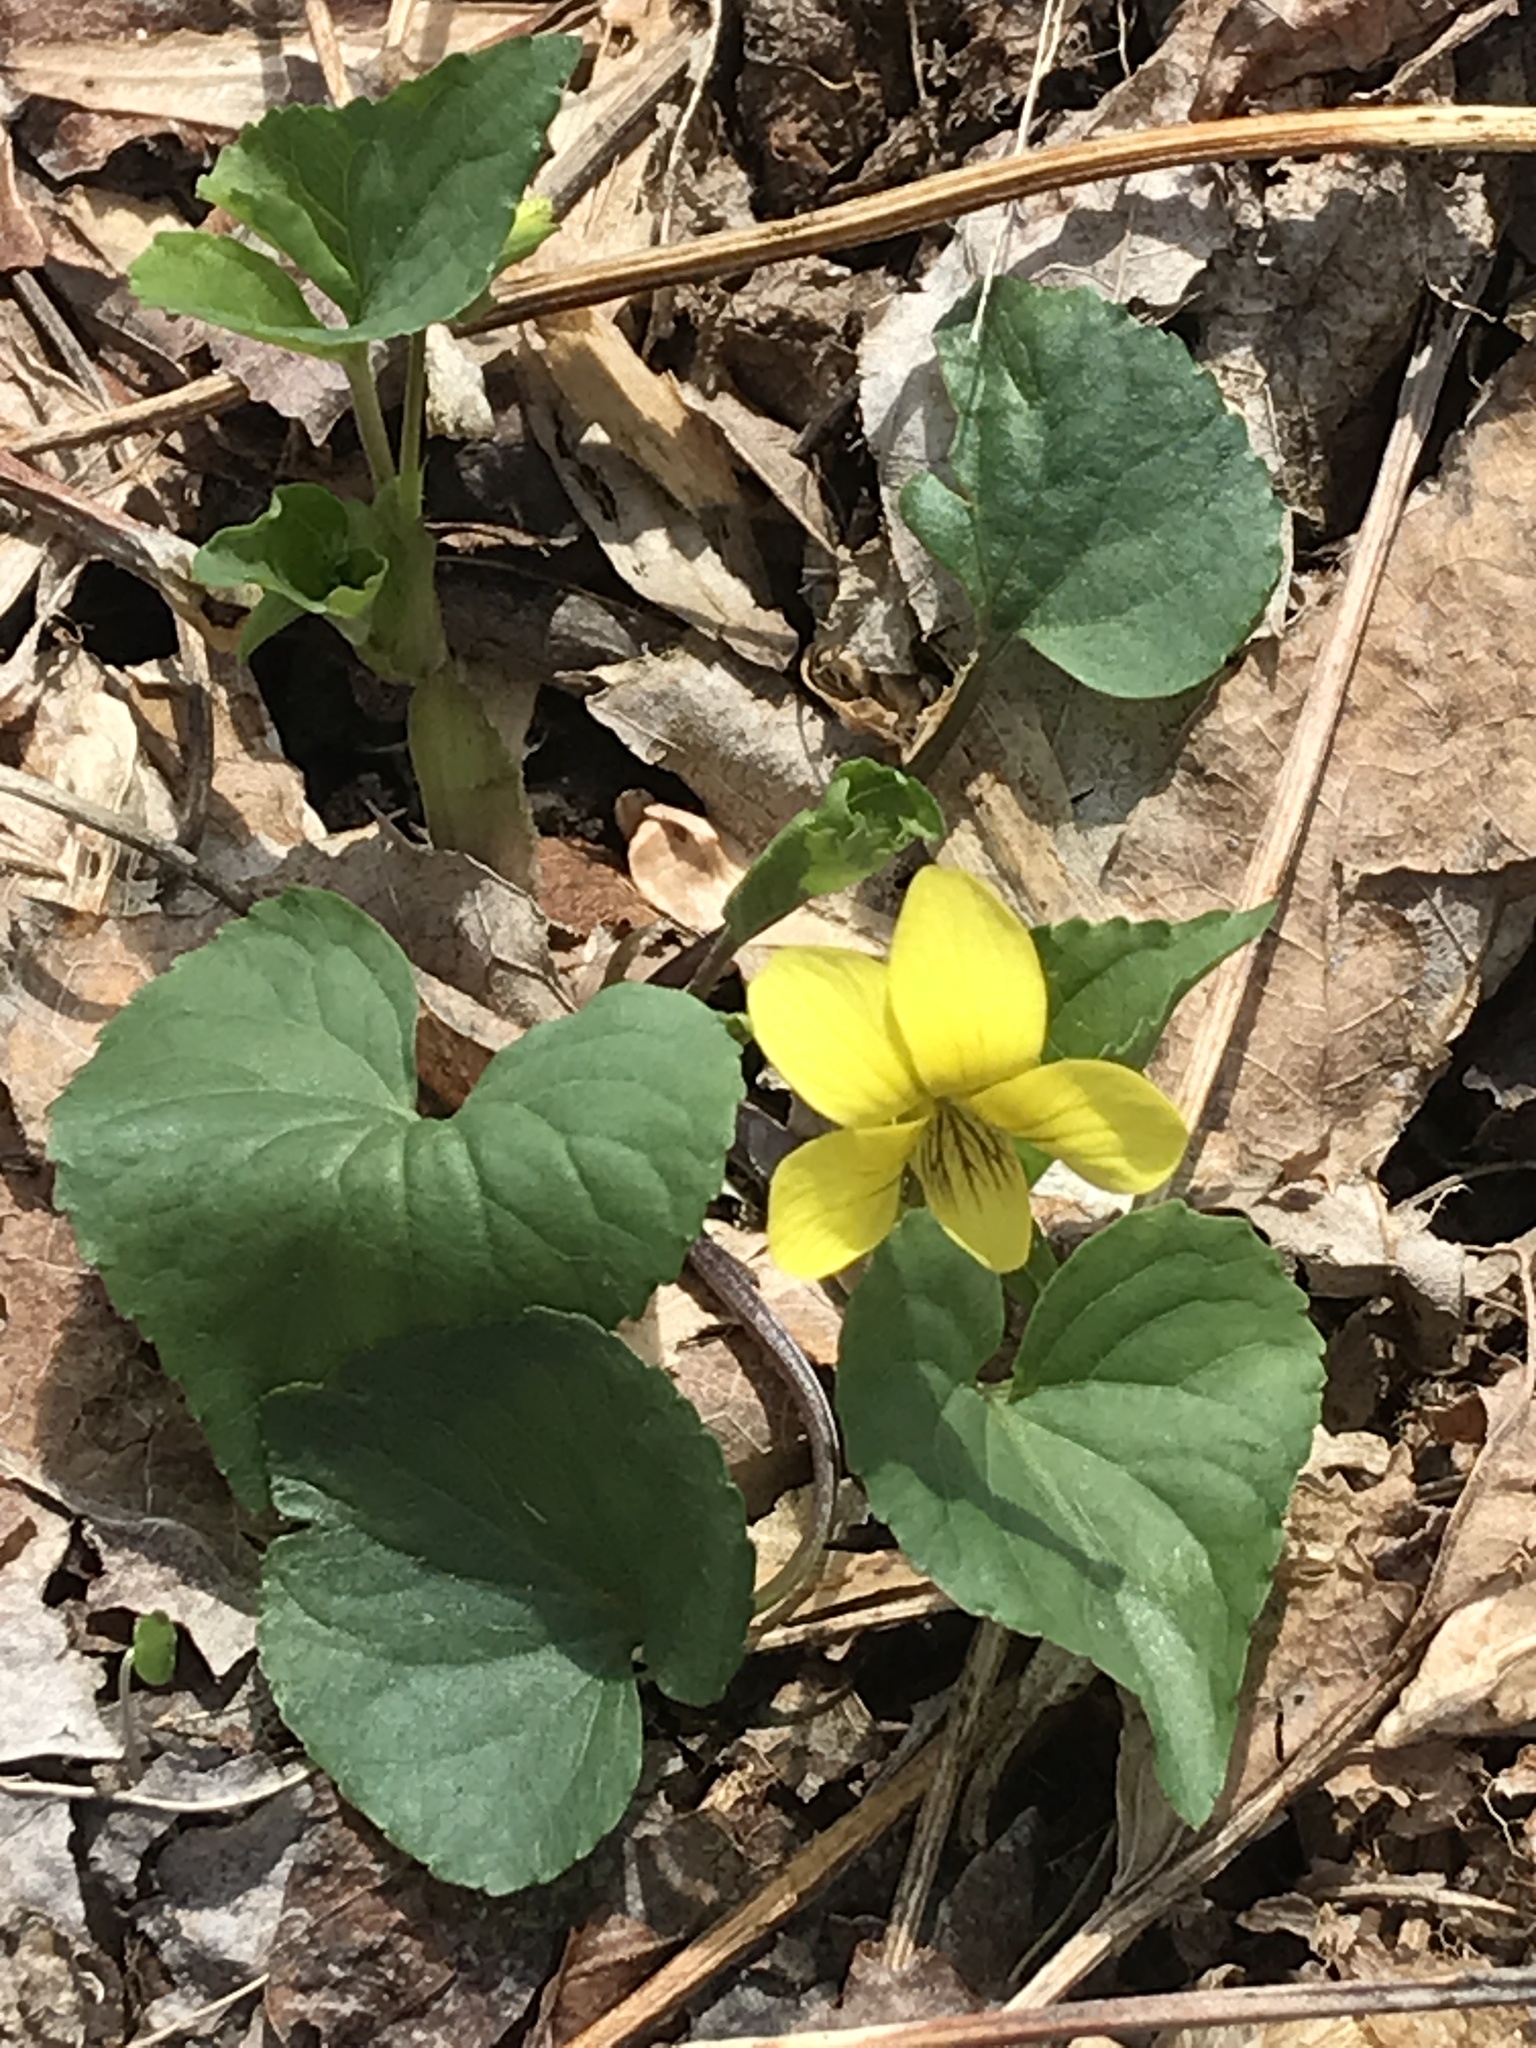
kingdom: Plantae
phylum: Tracheophyta
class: Magnoliopsida
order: Malpighiales
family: Violaceae
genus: Viola
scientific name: Viola eriocarpa
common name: Smooth yellow violet
